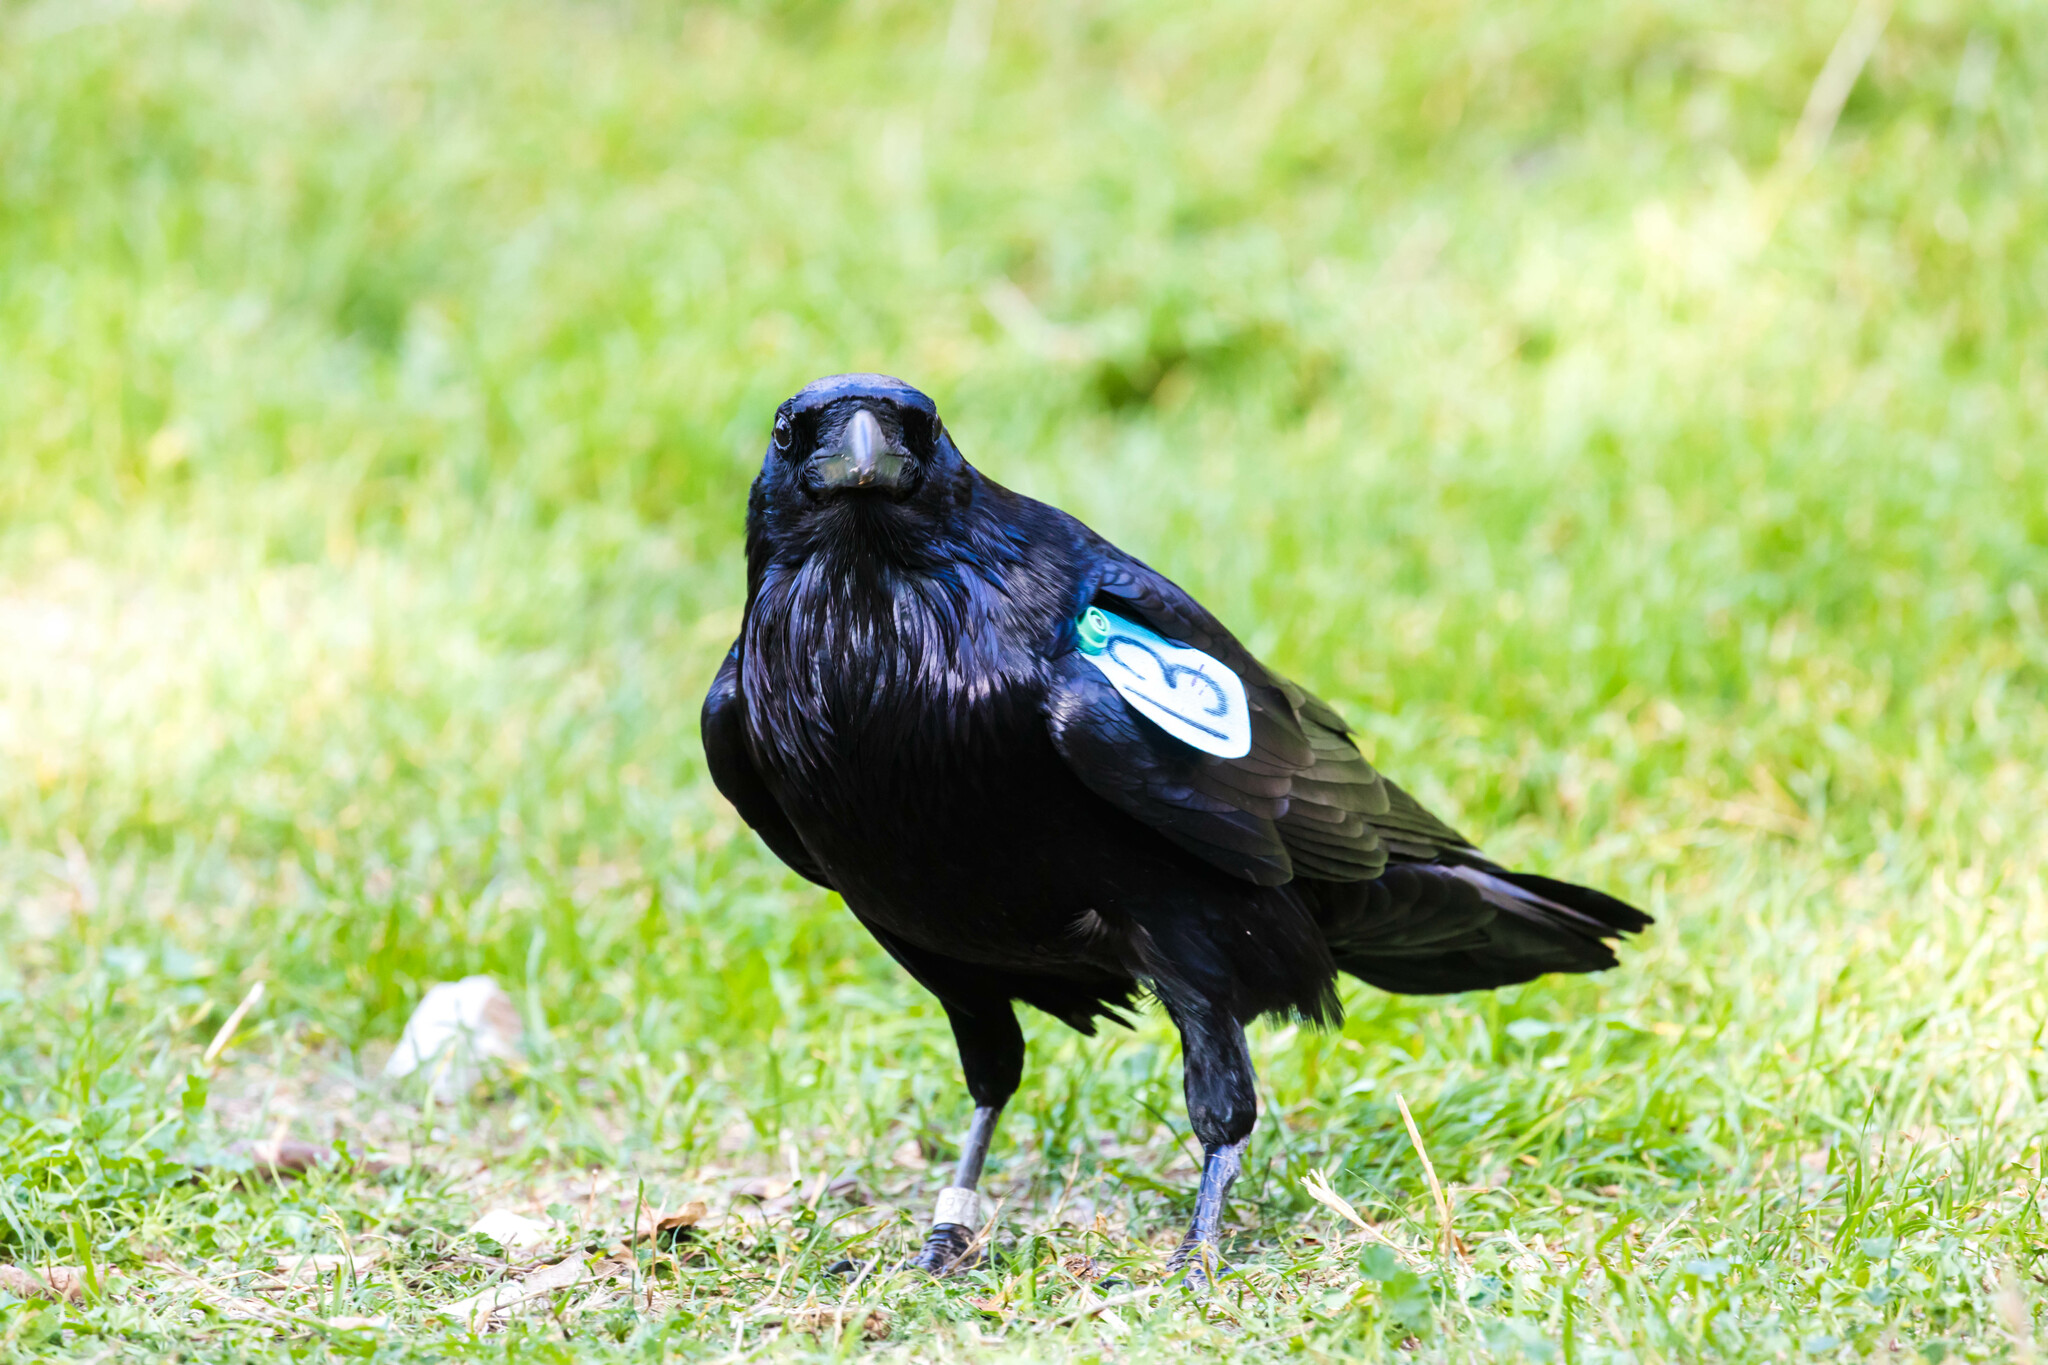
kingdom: Animalia
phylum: Chordata
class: Aves
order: Passeriformes
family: Corvidae
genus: Corvus
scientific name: Corvus corax
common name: Common raven
